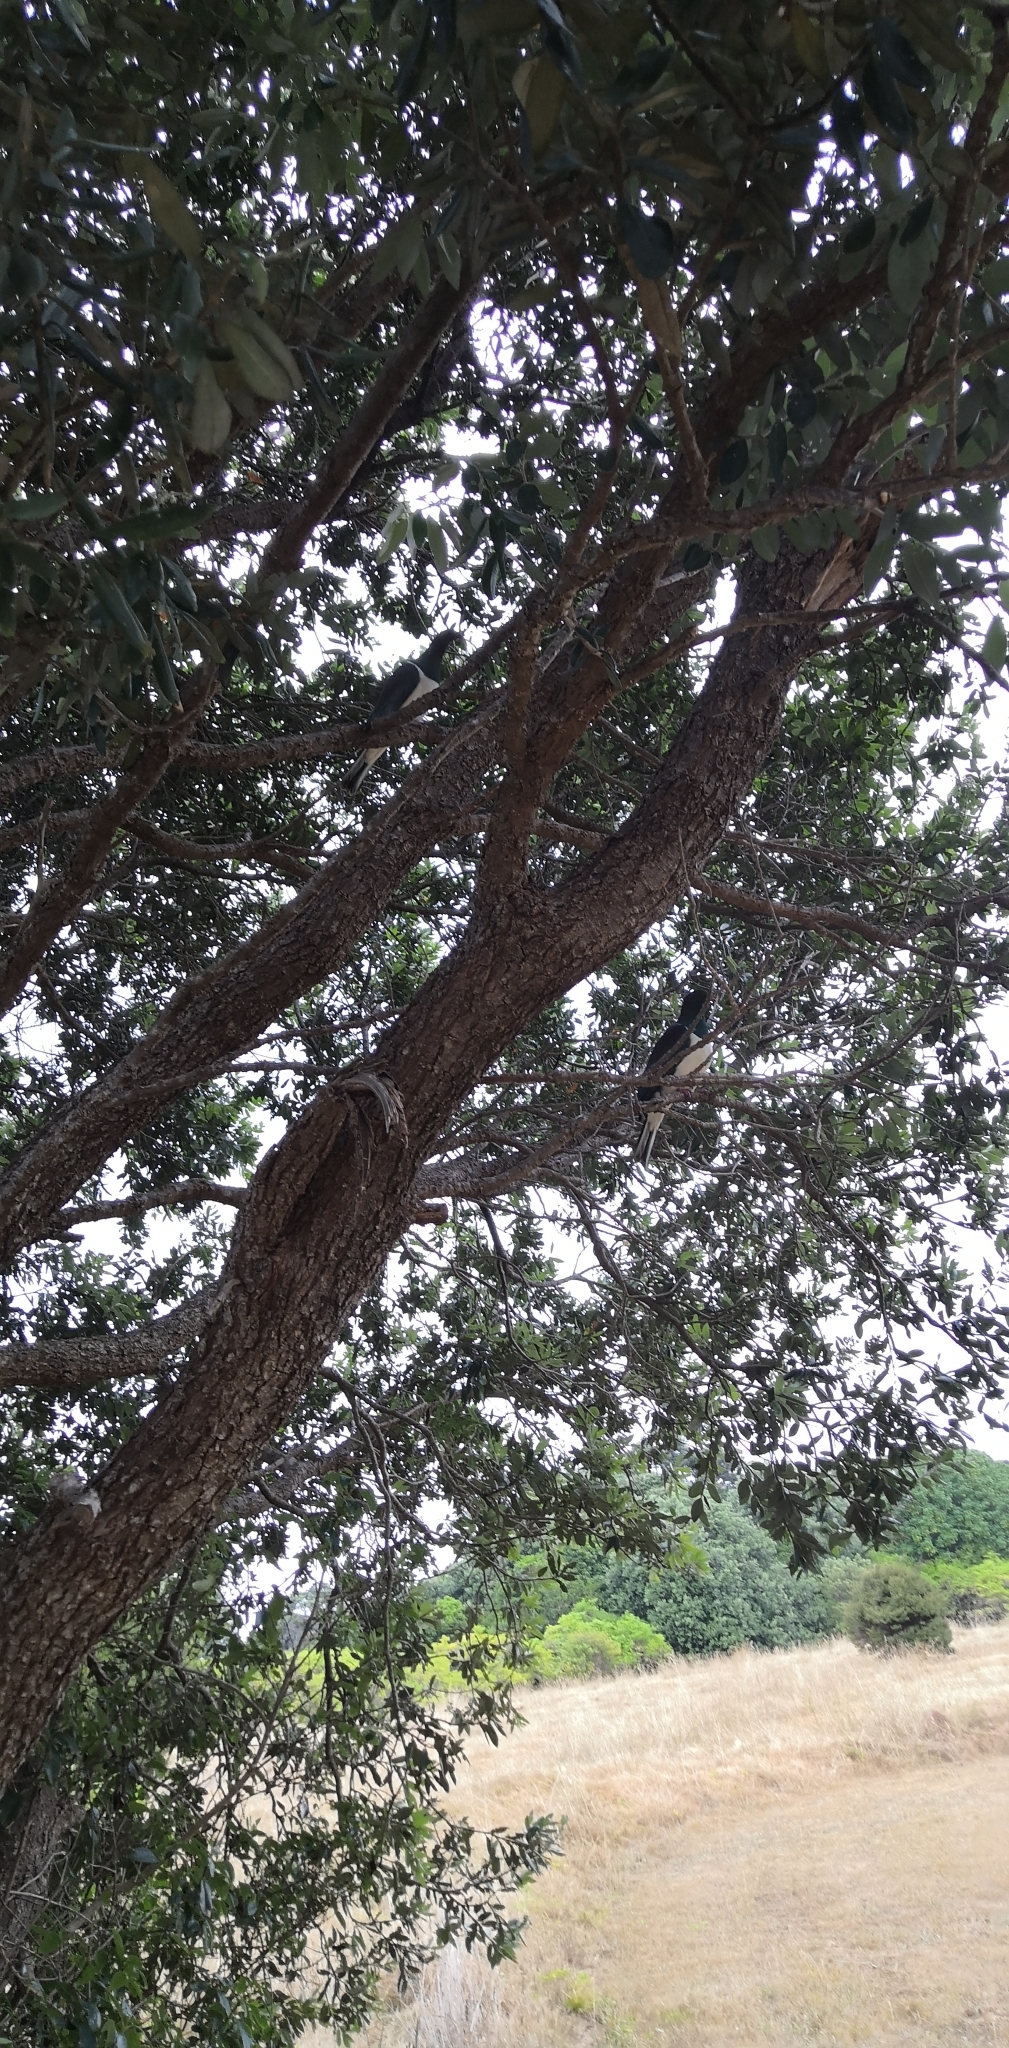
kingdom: Animalia
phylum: Chordata
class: Aves
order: Columbiformes
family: Columbidae
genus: Hemiphaga
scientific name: Hemiphaga novaeseelandiae
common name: New zealand pigeon
